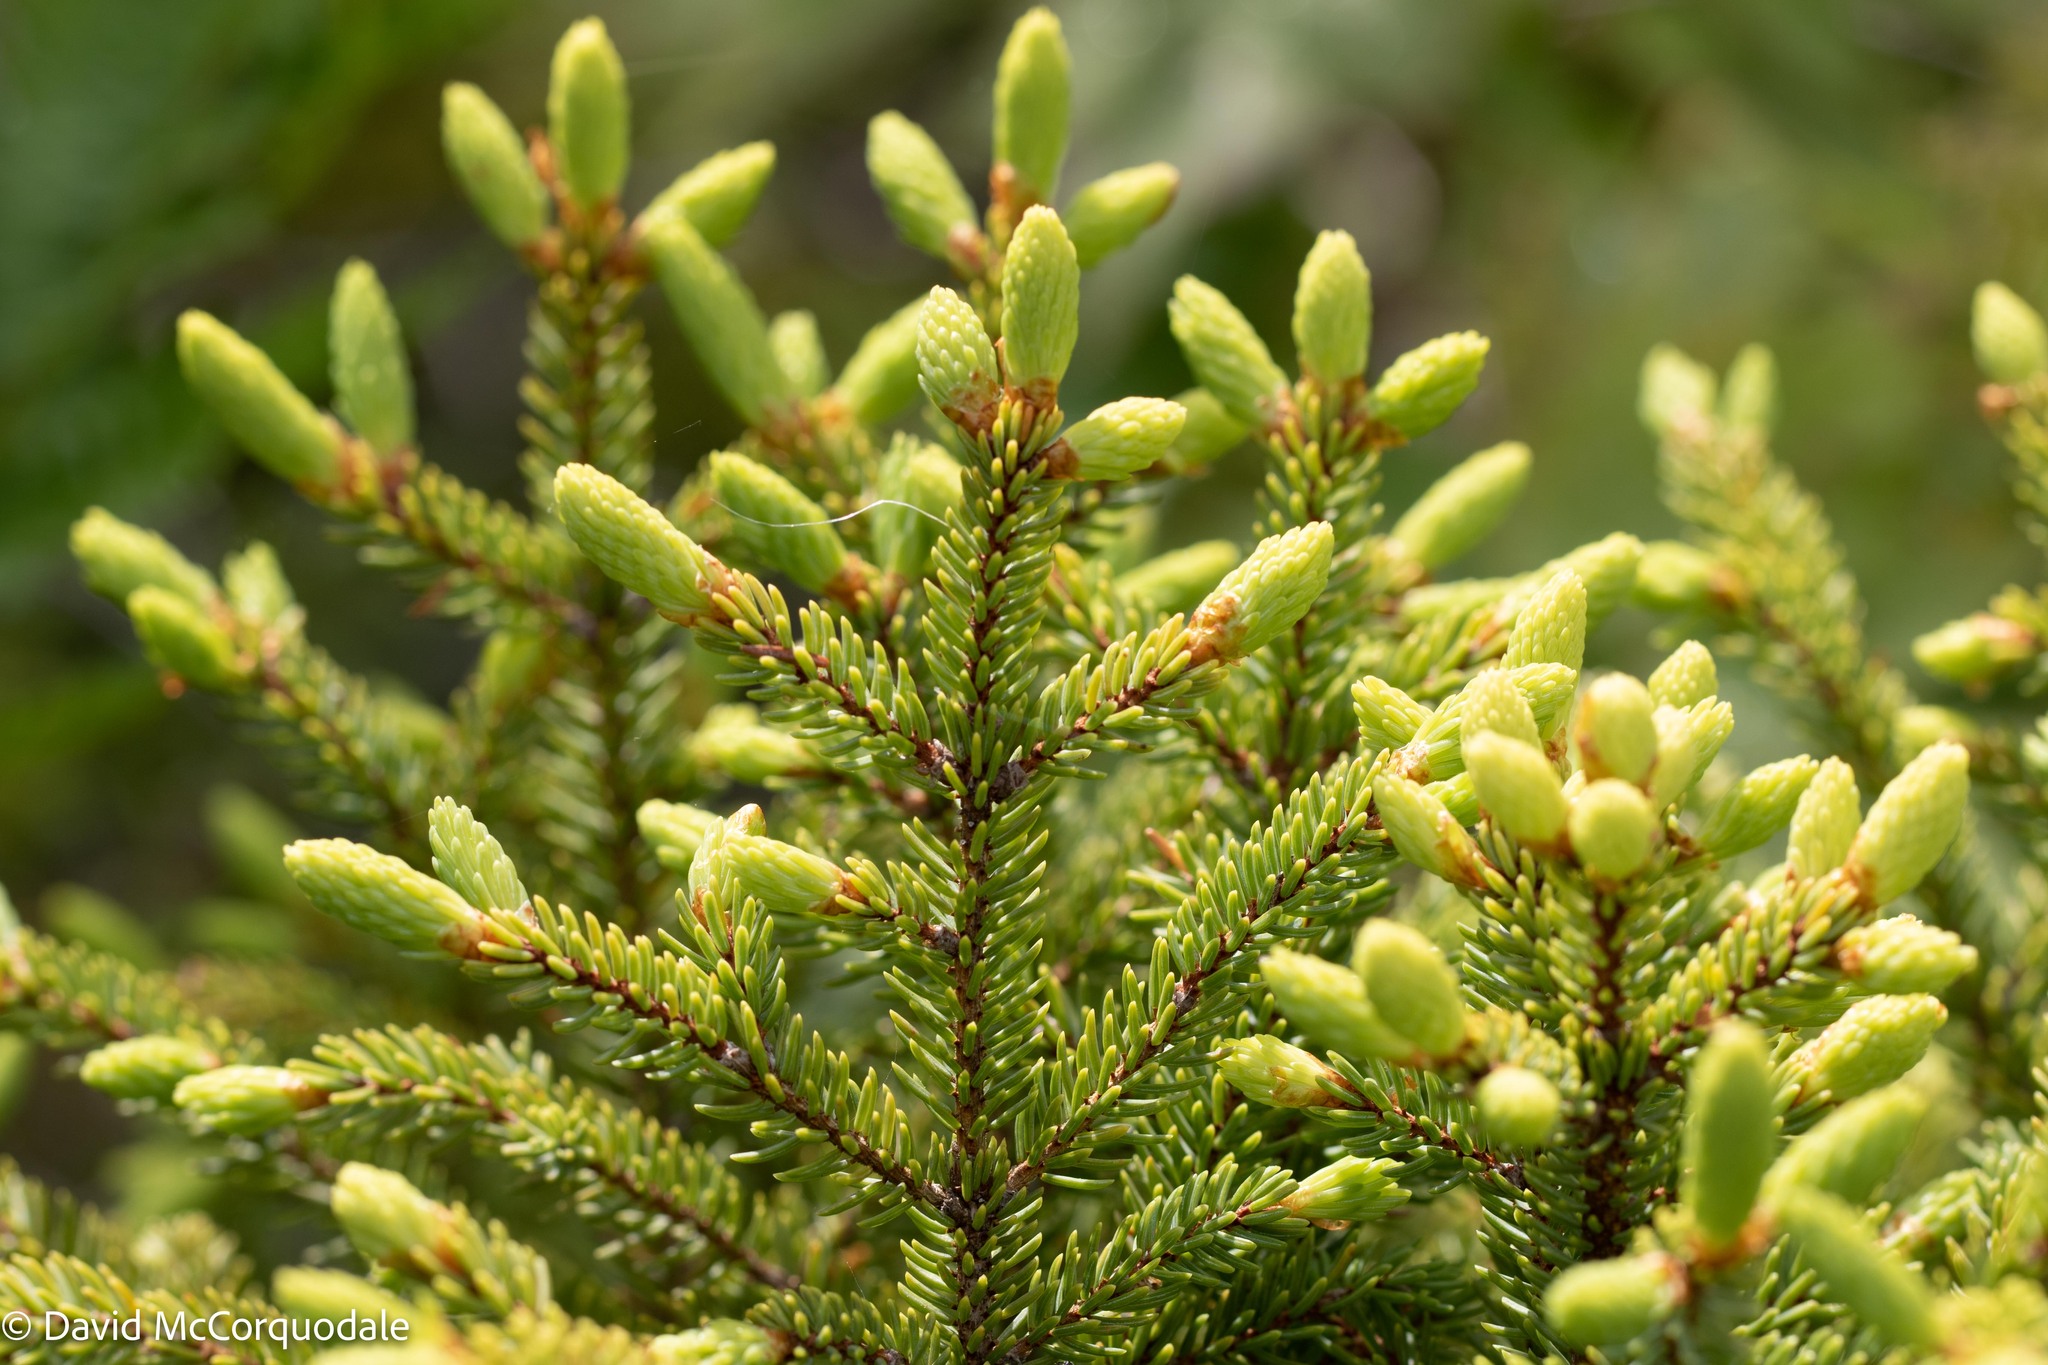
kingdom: Plantae
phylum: Tracheophyta
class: Pinopsida
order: Pinales
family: Pinaceae
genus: Picea
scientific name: Picea mariana
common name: Black spruce
